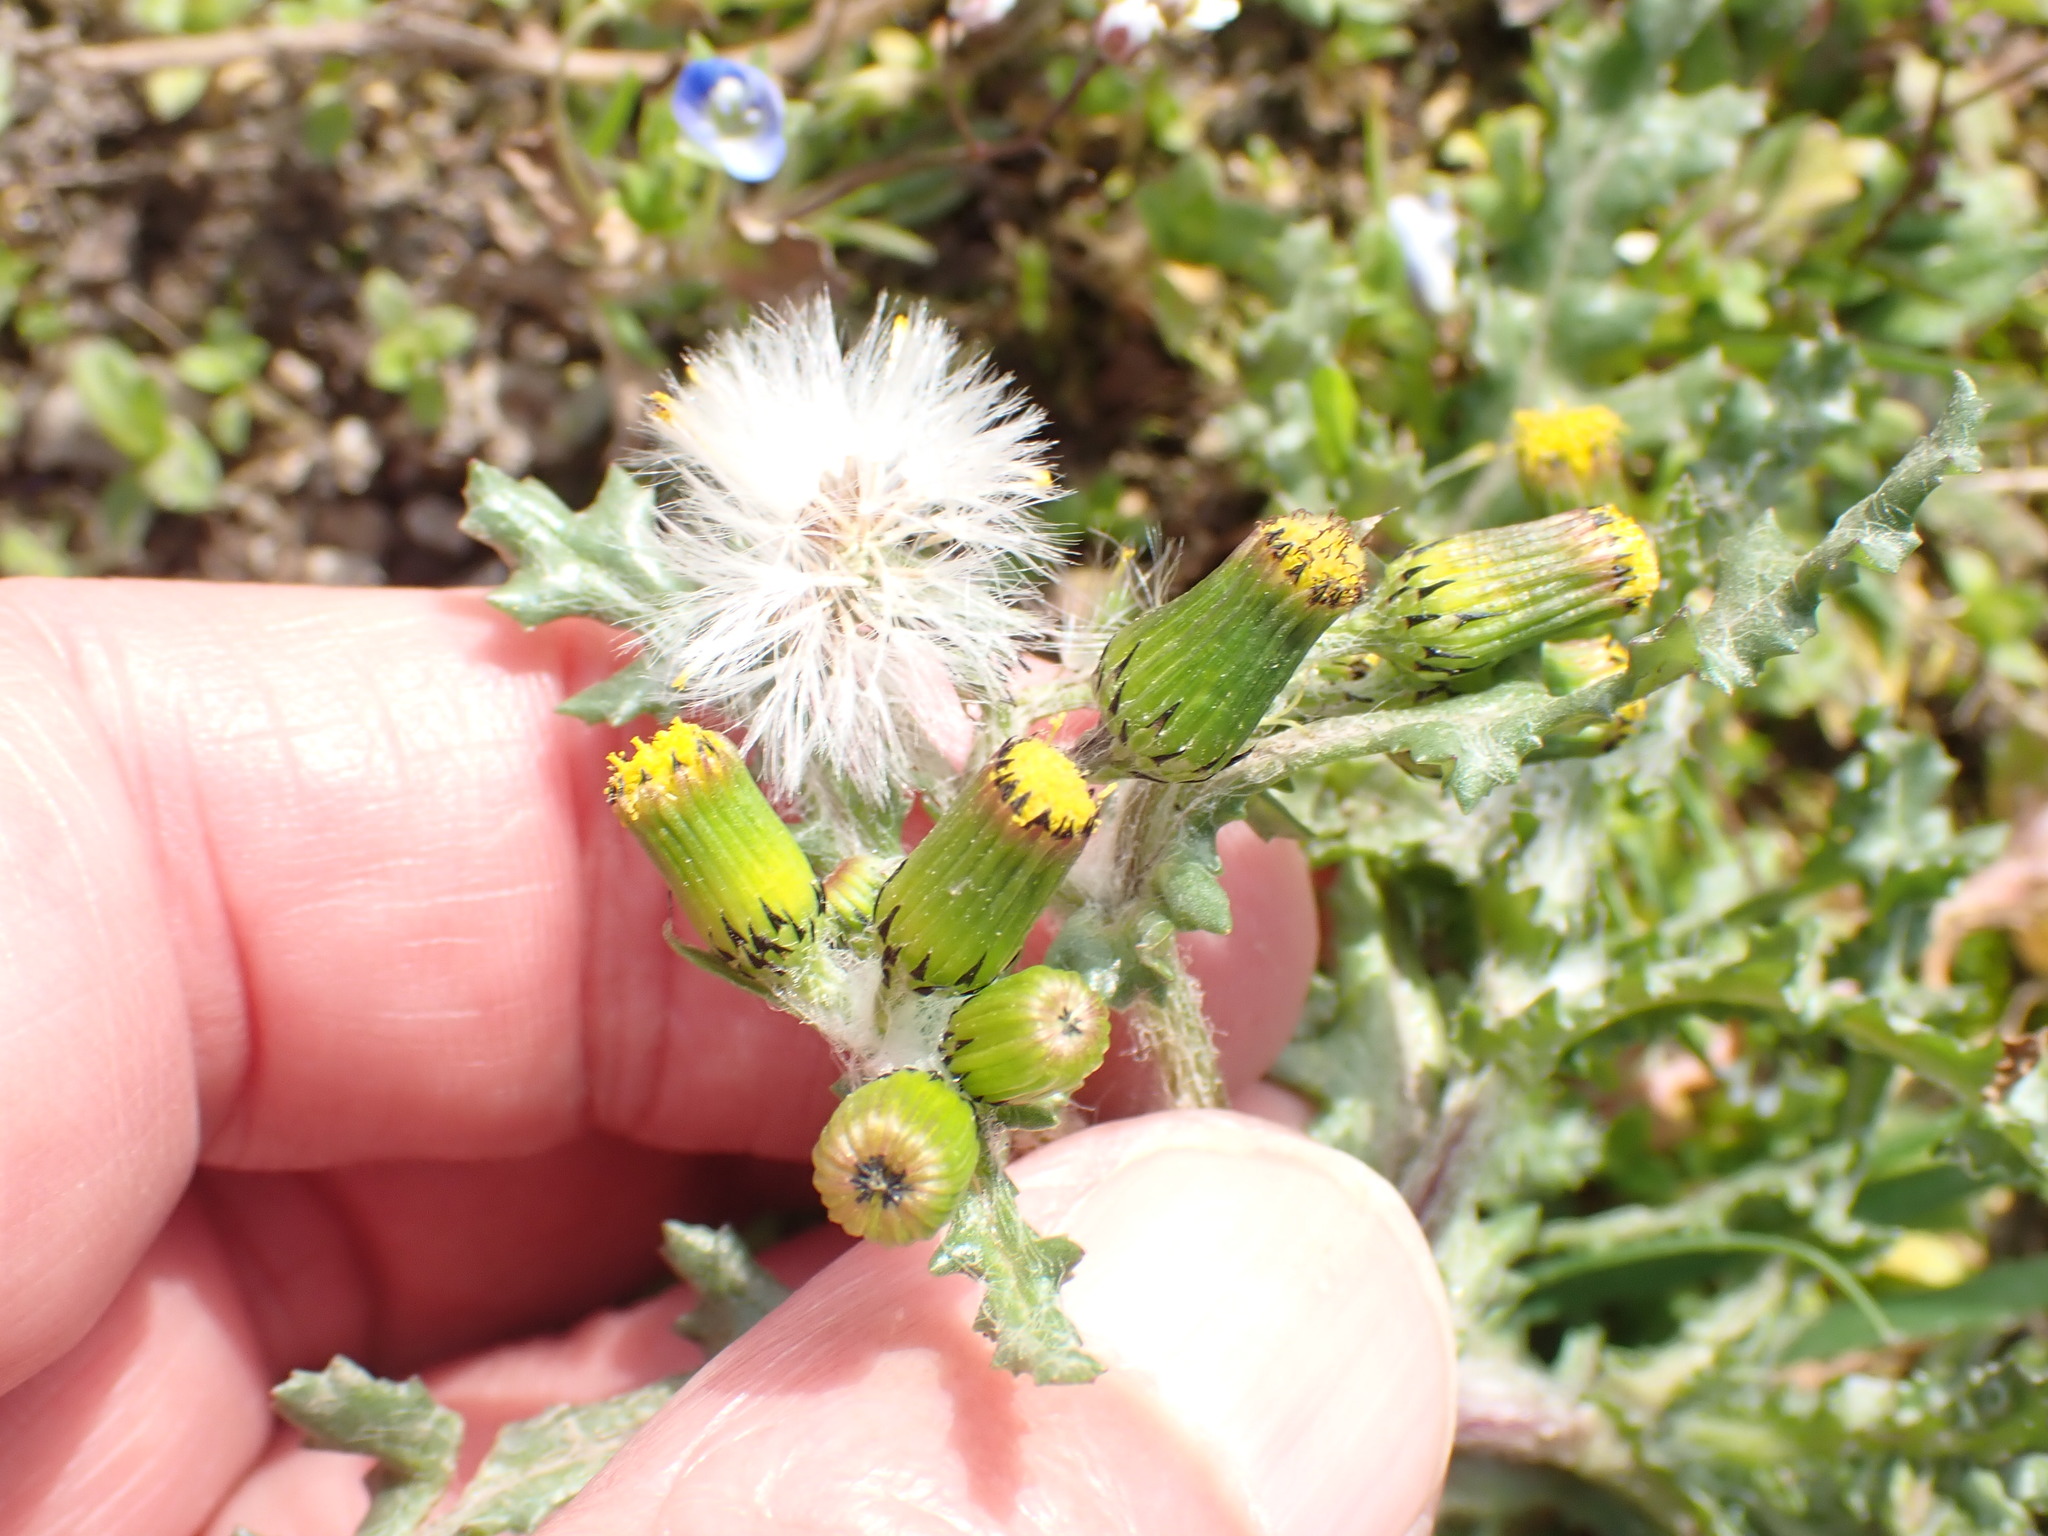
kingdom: Plantae
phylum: Tracheophyta
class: Magnoliopsida
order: Asterales
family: Asteraceae
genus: Senecio
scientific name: Senecio vulgaris
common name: Old-man-in-the-spring
